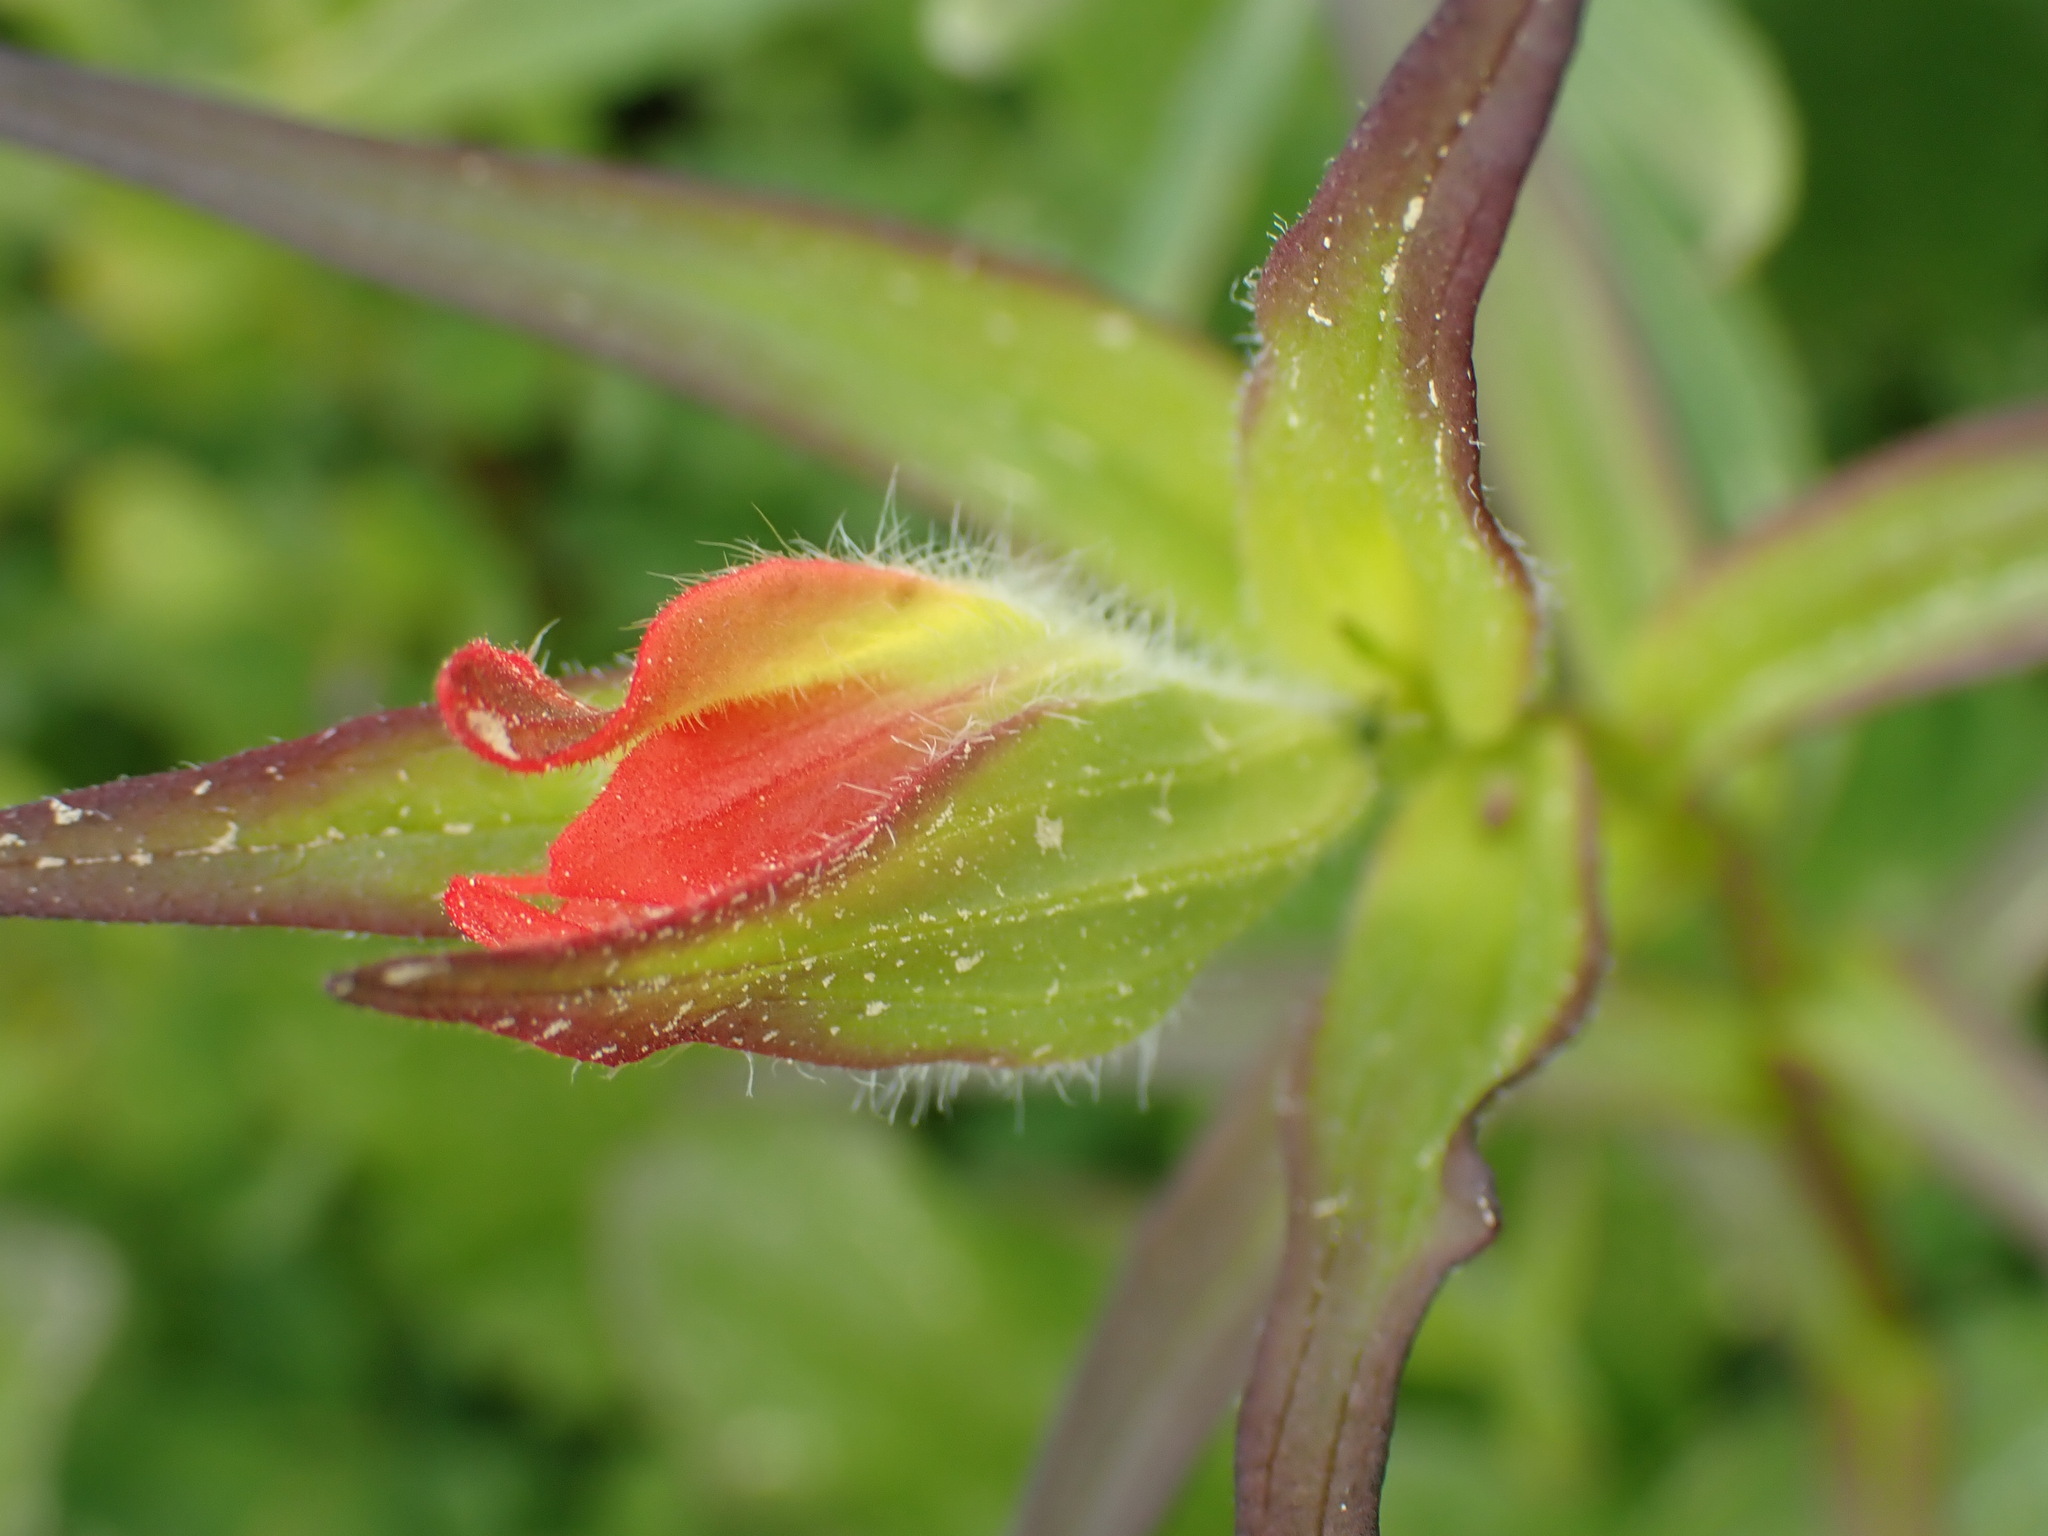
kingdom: Plantae
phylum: Tracheophyta
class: Magnoliopsida
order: Lamiales
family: Orobanchaceae
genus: Castilleja
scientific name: Castilleja miniata
